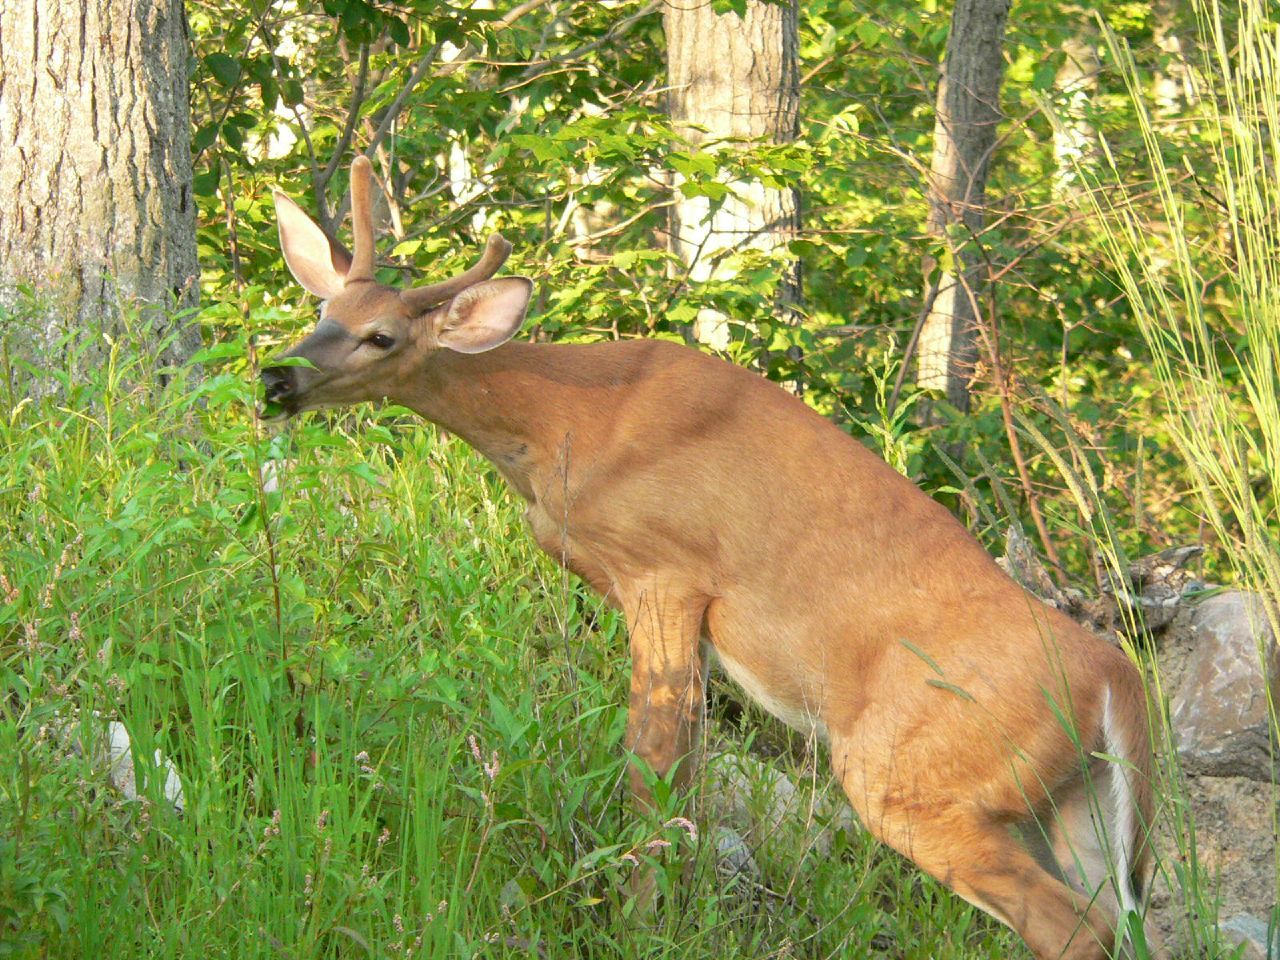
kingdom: Animalia
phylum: Chordata
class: Mammalia
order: Artiodactyla
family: Cervidae
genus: Odocoileus
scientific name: Odocoileus virginianus
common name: White-tailed deer
